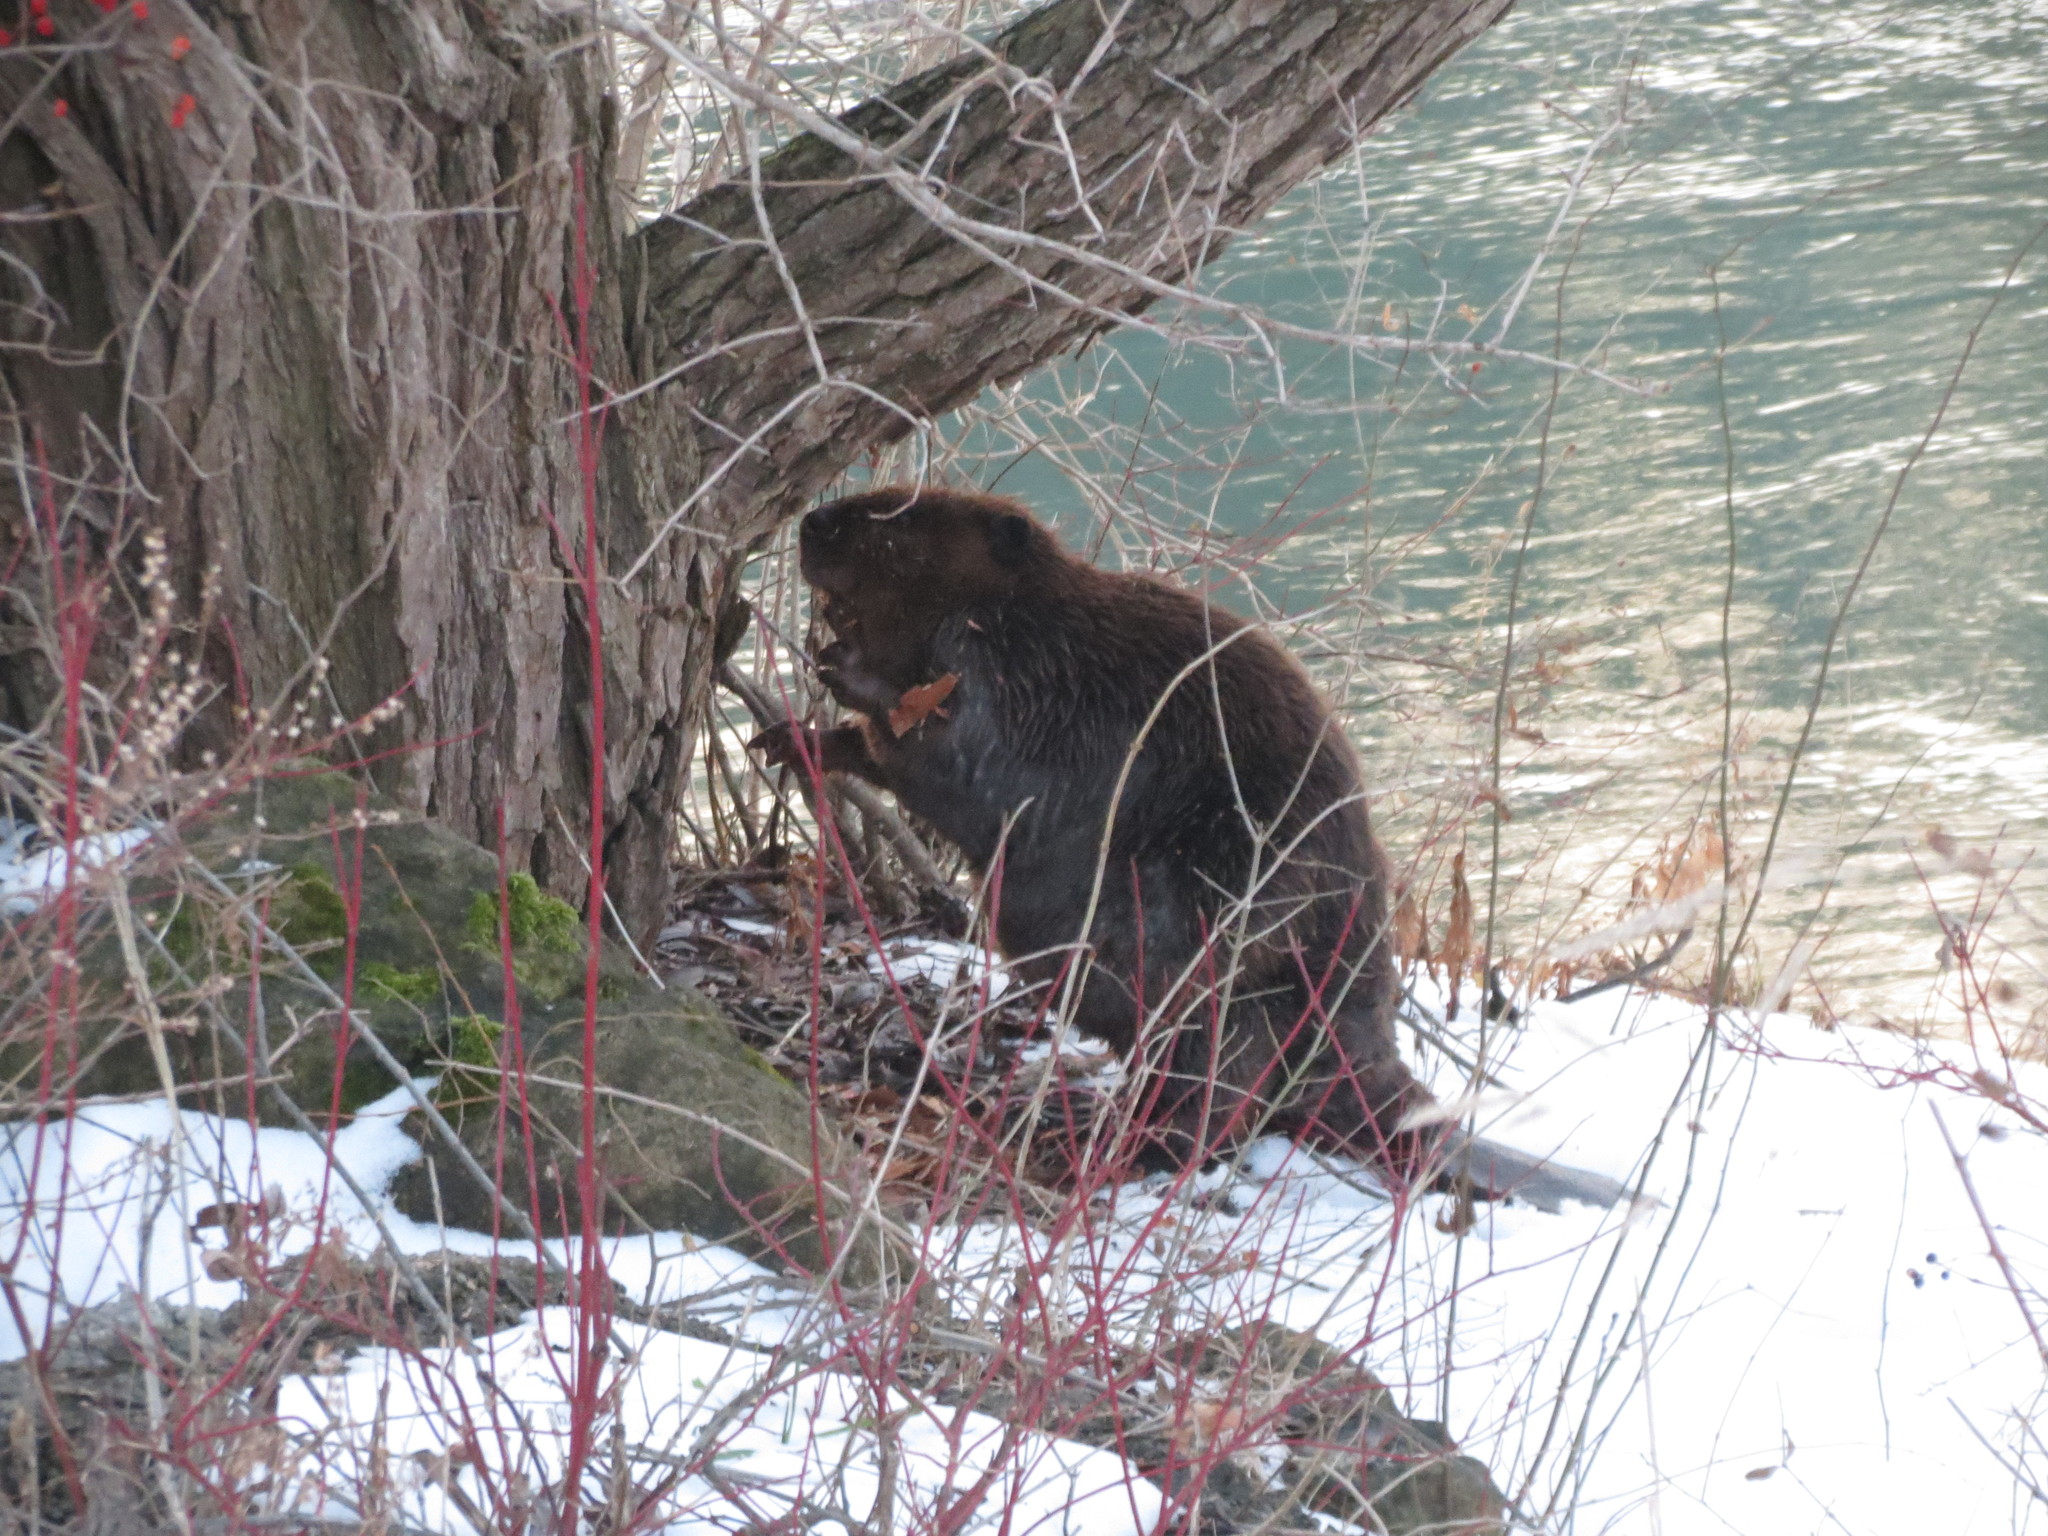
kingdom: Animalia
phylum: Chordata
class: Mammalia
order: Rodentia
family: Castoridae
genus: Castor
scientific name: Castor canadensis
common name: American beaver
